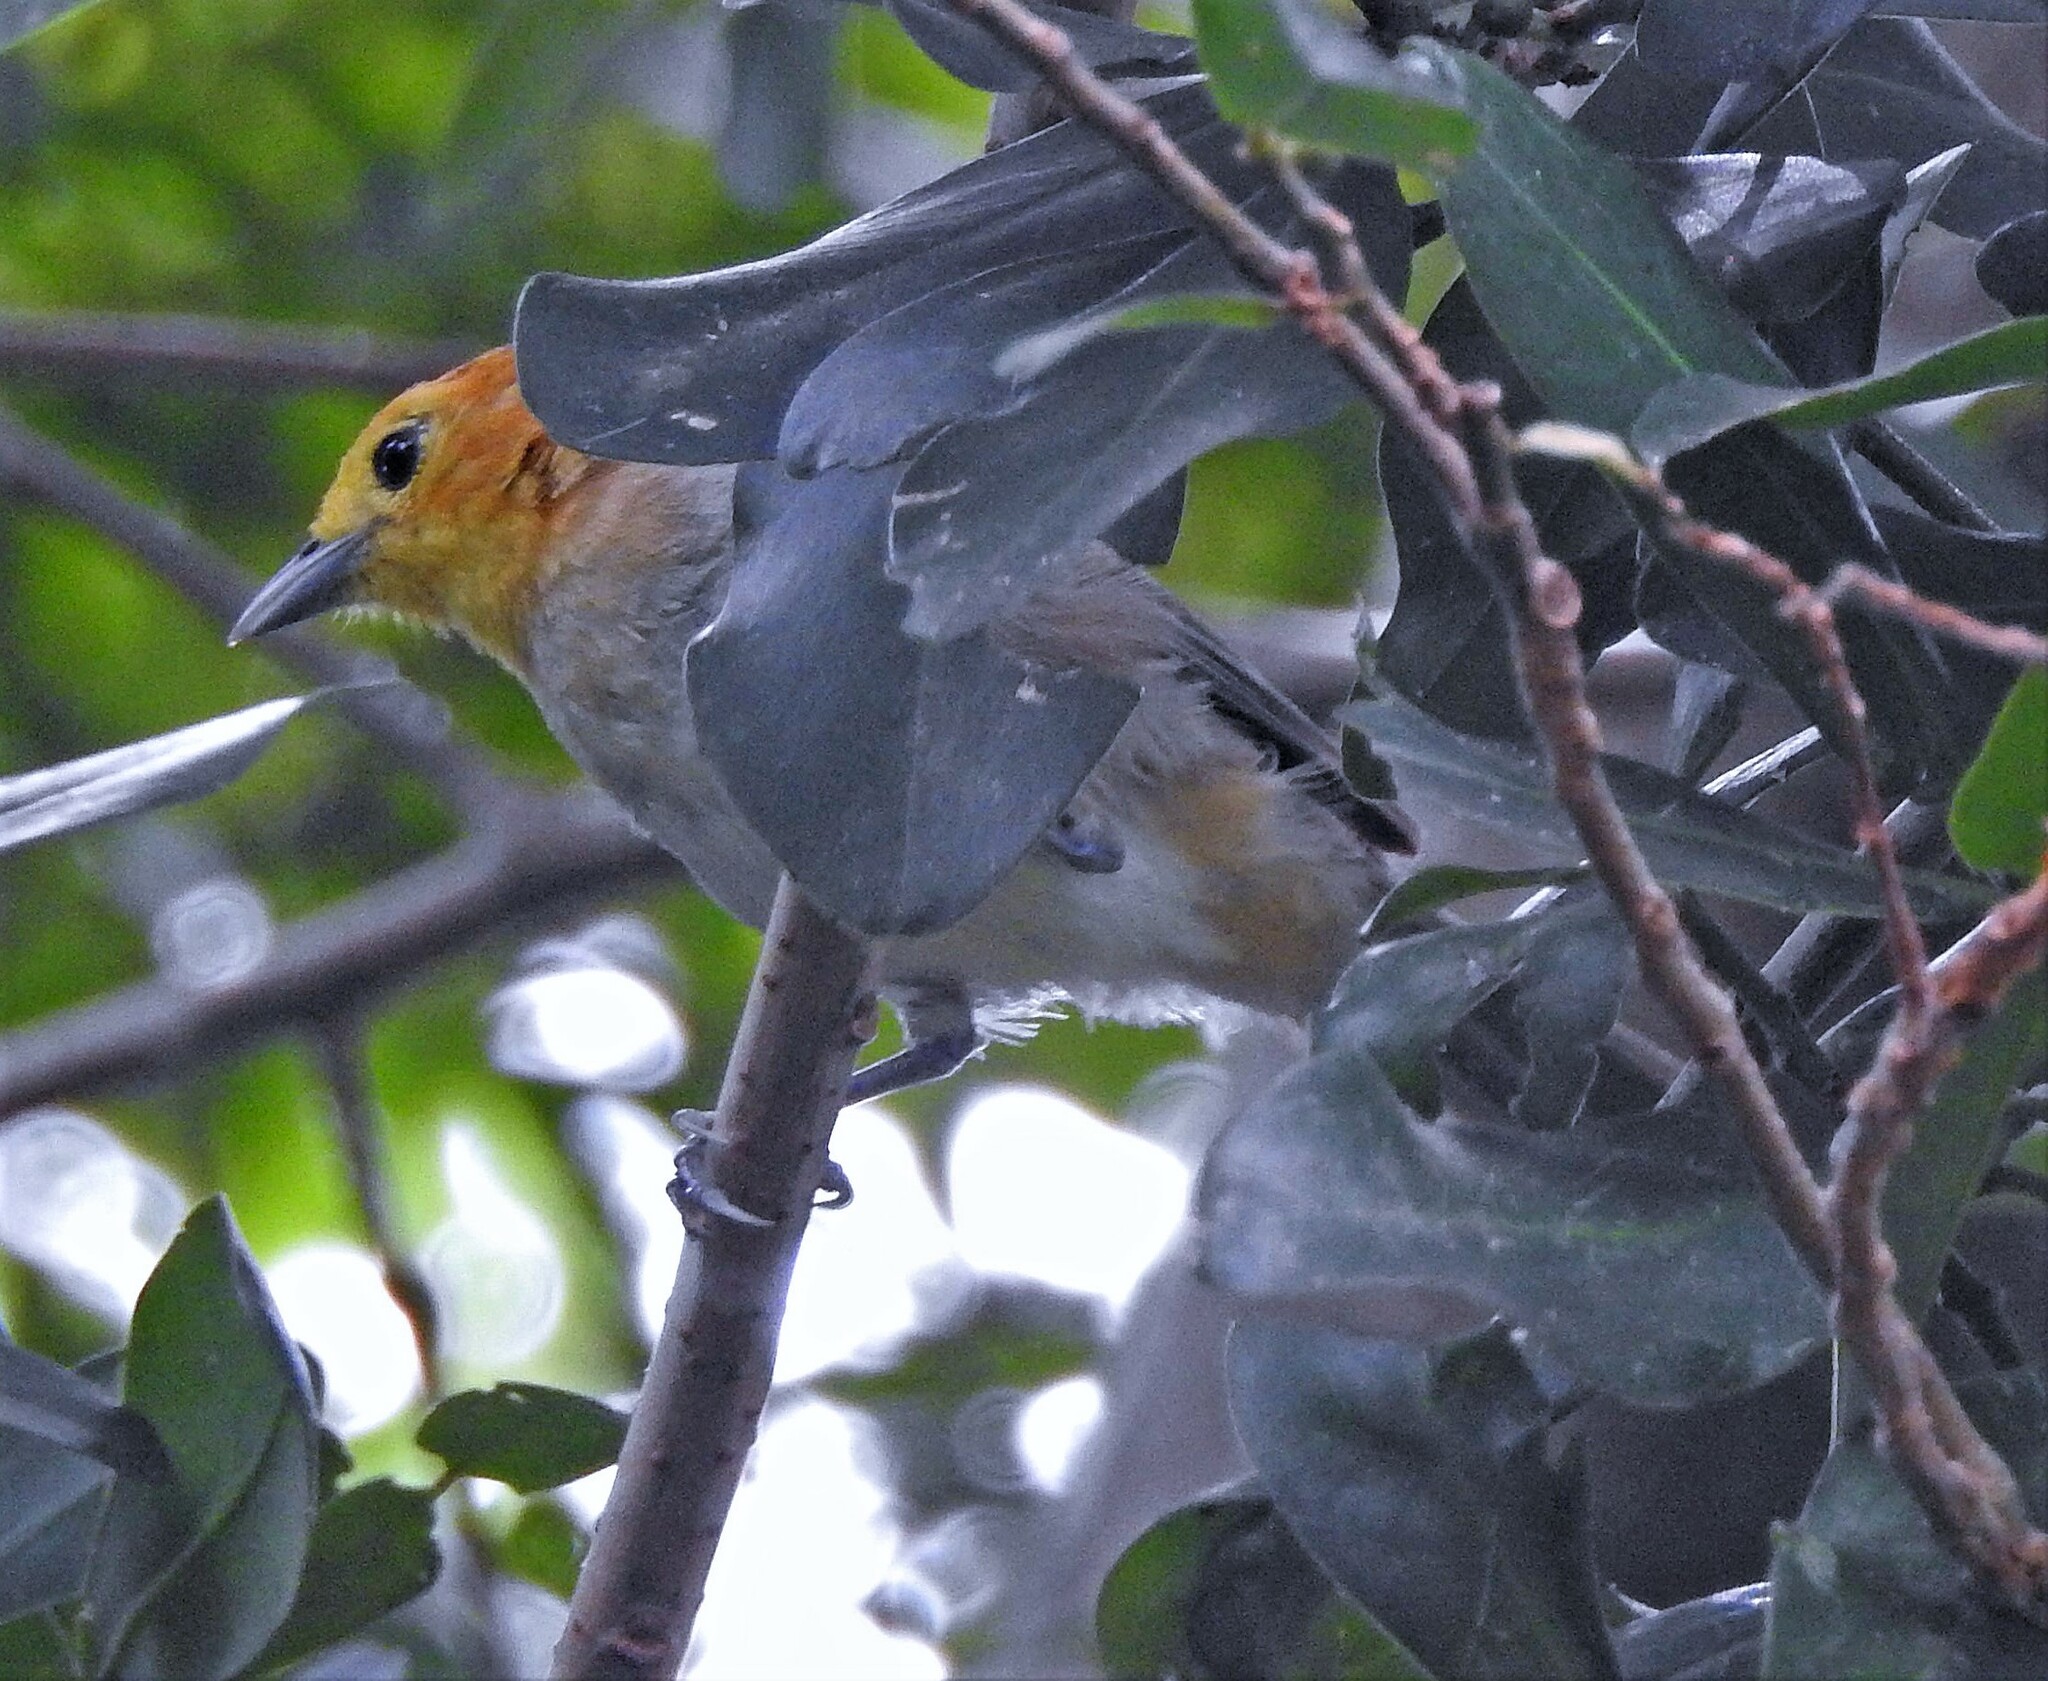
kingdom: Animalia
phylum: Chordata
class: Aves
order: Passeriformes
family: Thraupidae
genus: Thlypopsis
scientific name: Thlypopsis sordida
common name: Orange-headed tanager
